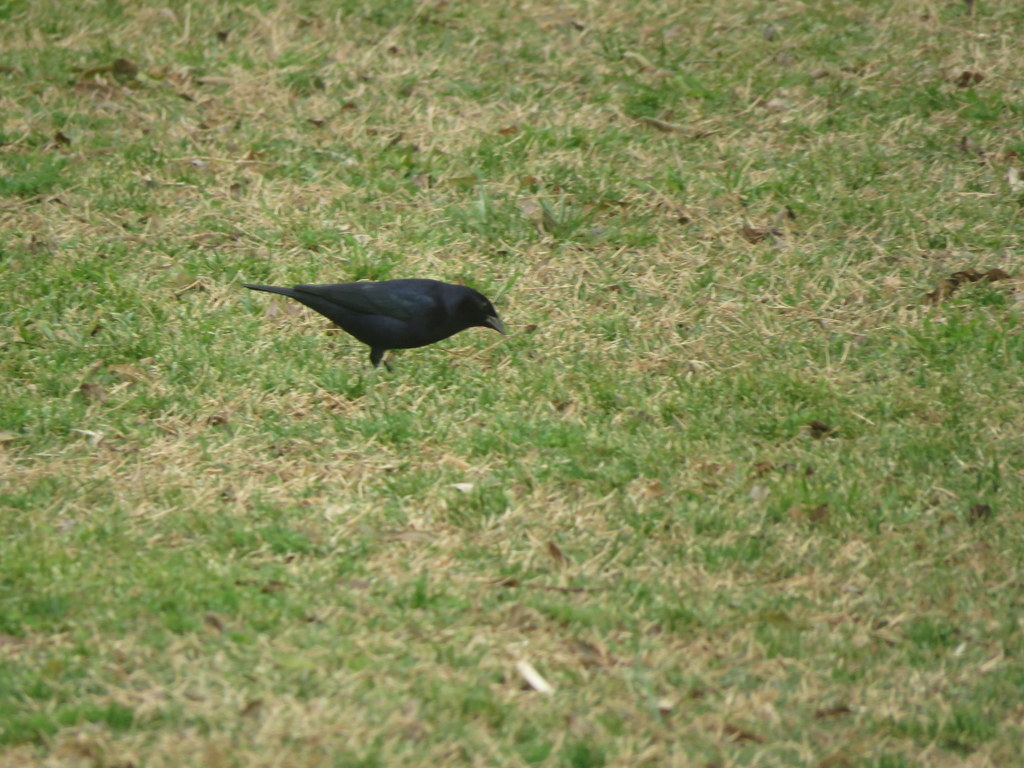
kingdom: Animalia
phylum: Chordata
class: Aves
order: Passeriformes
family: Icteridae
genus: Molothrus
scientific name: Molothrus bonariensis
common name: Shiny cowbird
